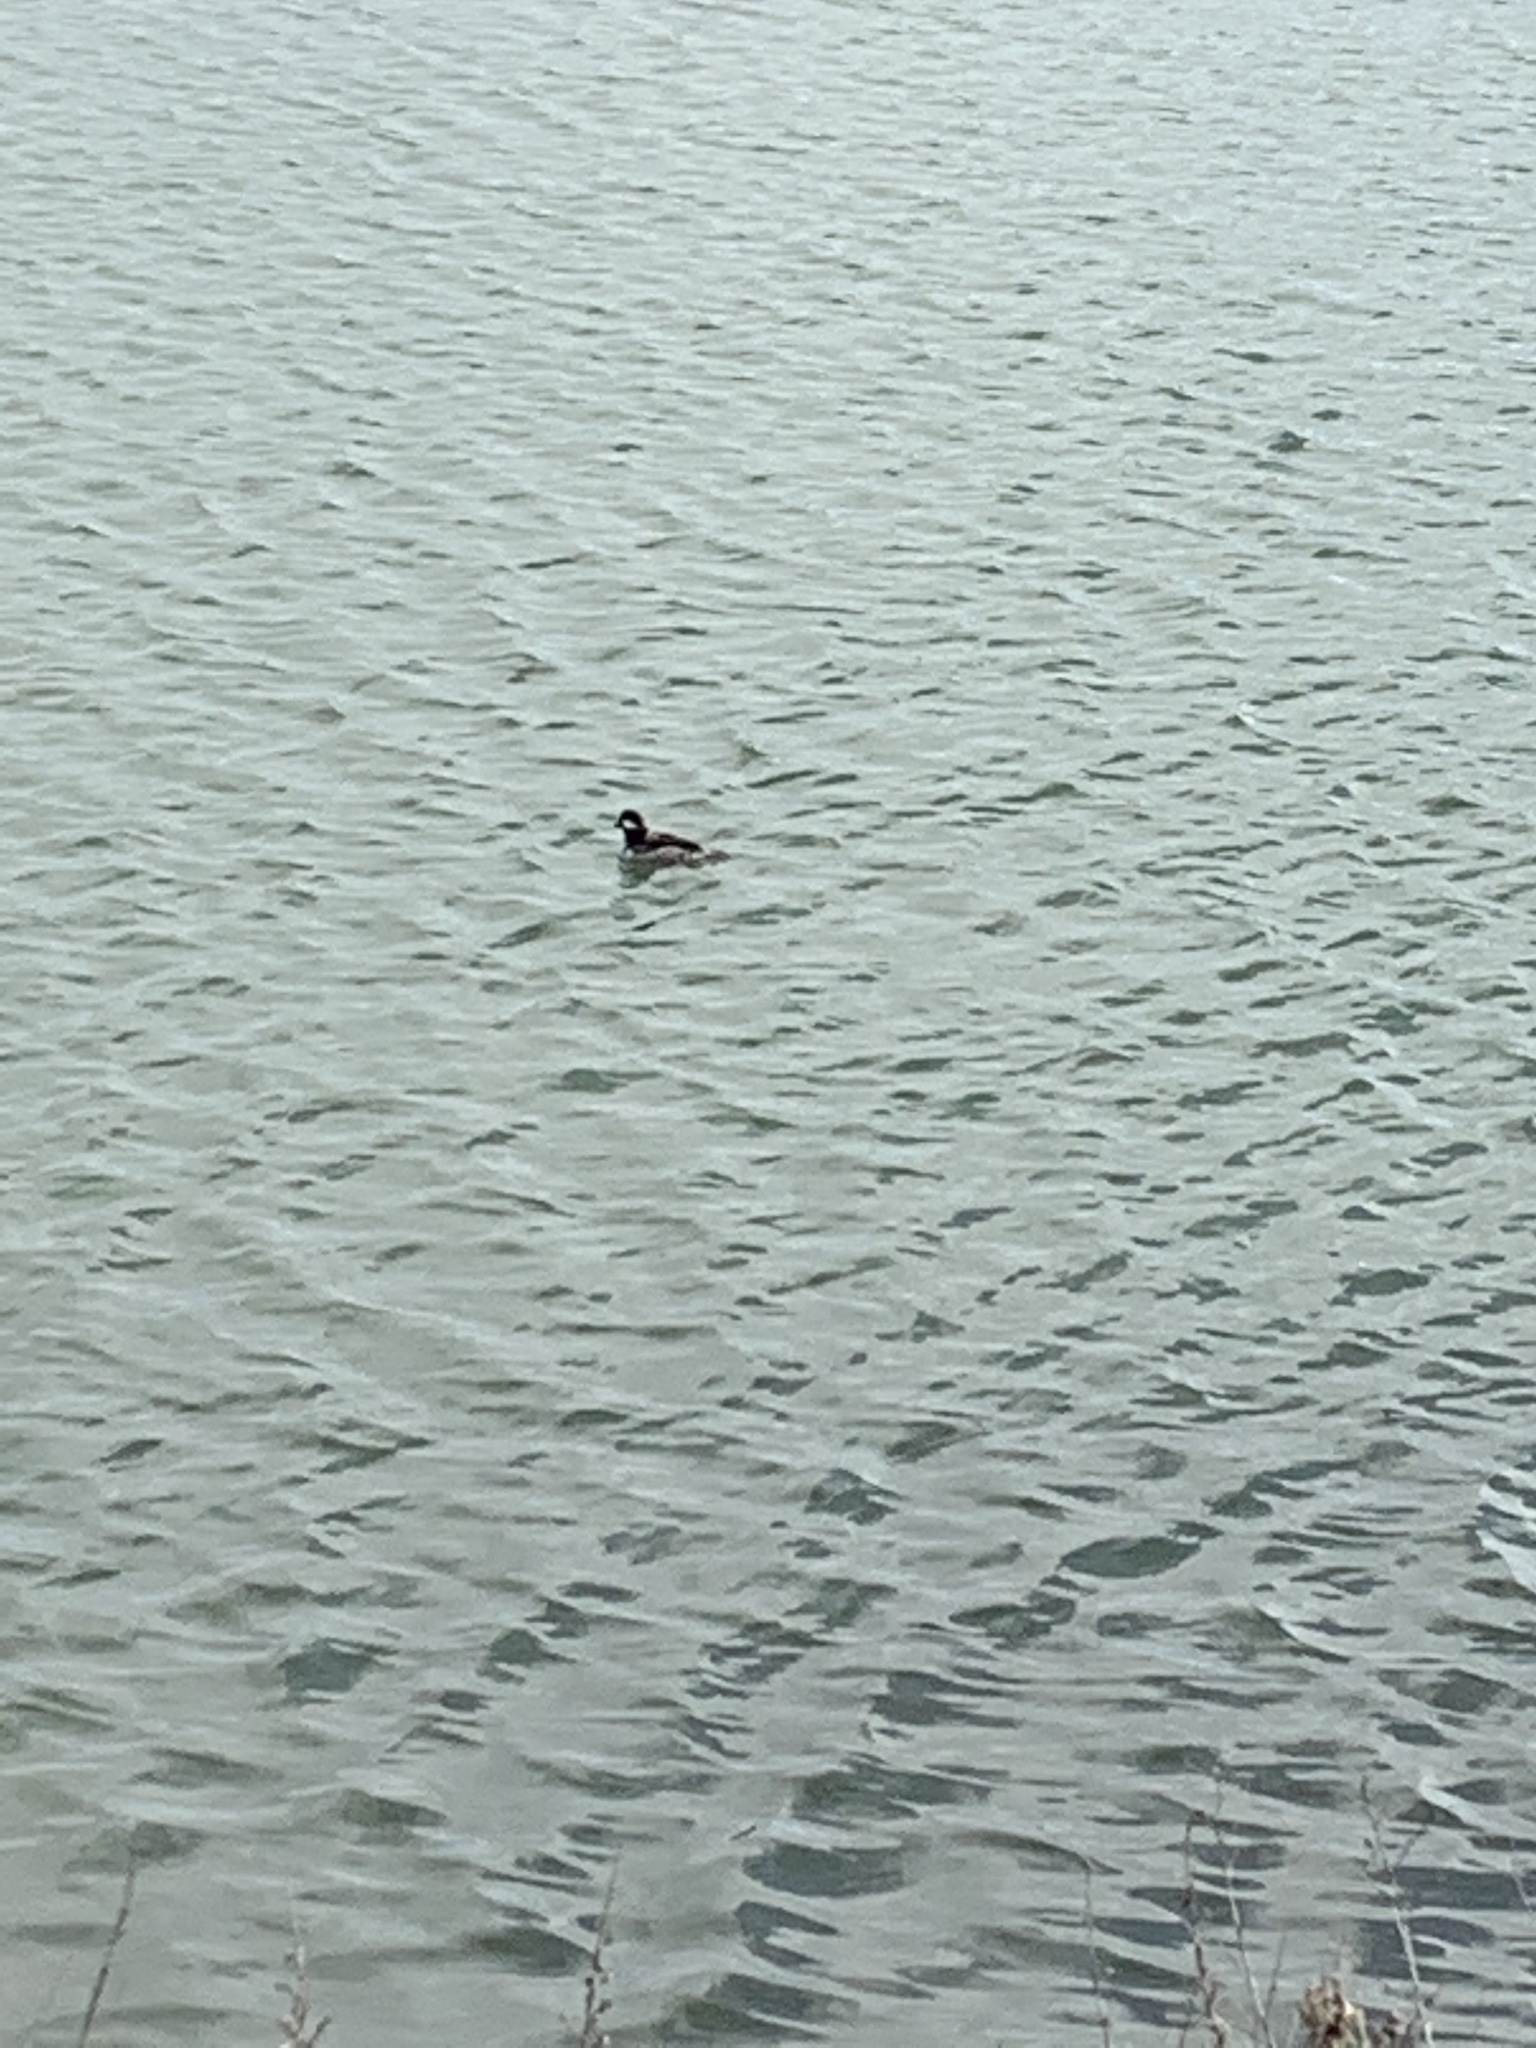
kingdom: Animalia
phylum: Chordata
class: Aves
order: Anseriformes
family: Anatidae
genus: Bucephala
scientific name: Bucephala albeola
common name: Bufflehead
